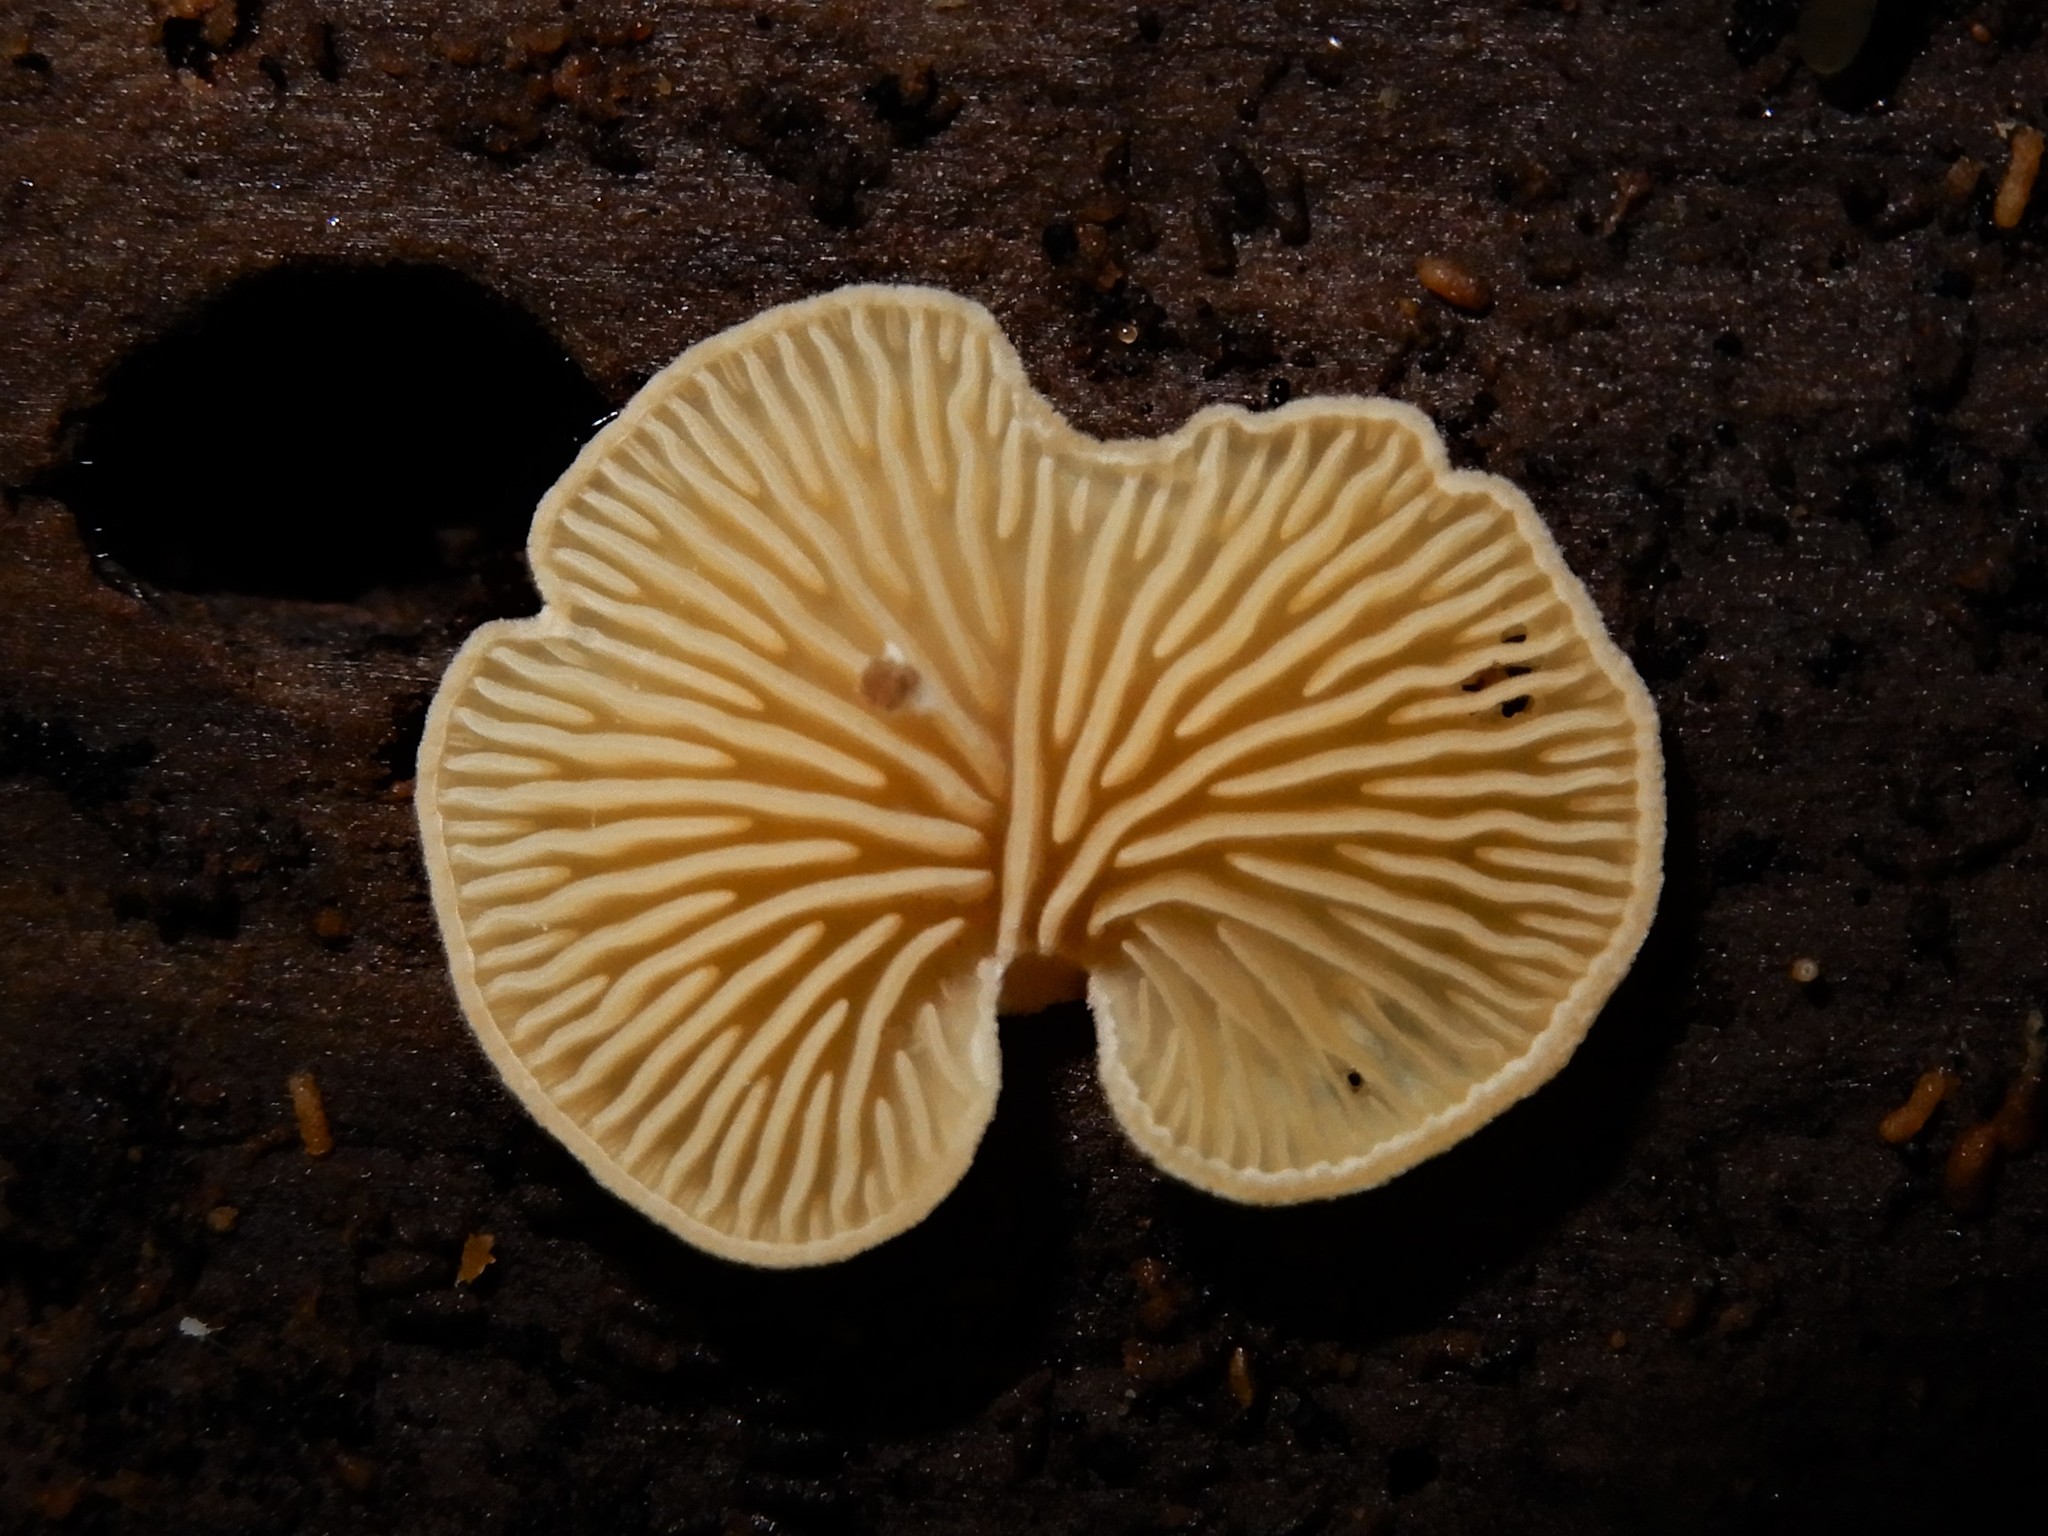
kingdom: Fungi
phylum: Basidiomycota
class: Agaricomycetes
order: Agaricales
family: Pleurotaceae
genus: Hohenbuehelia
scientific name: Hohenbuehelia ligulata
